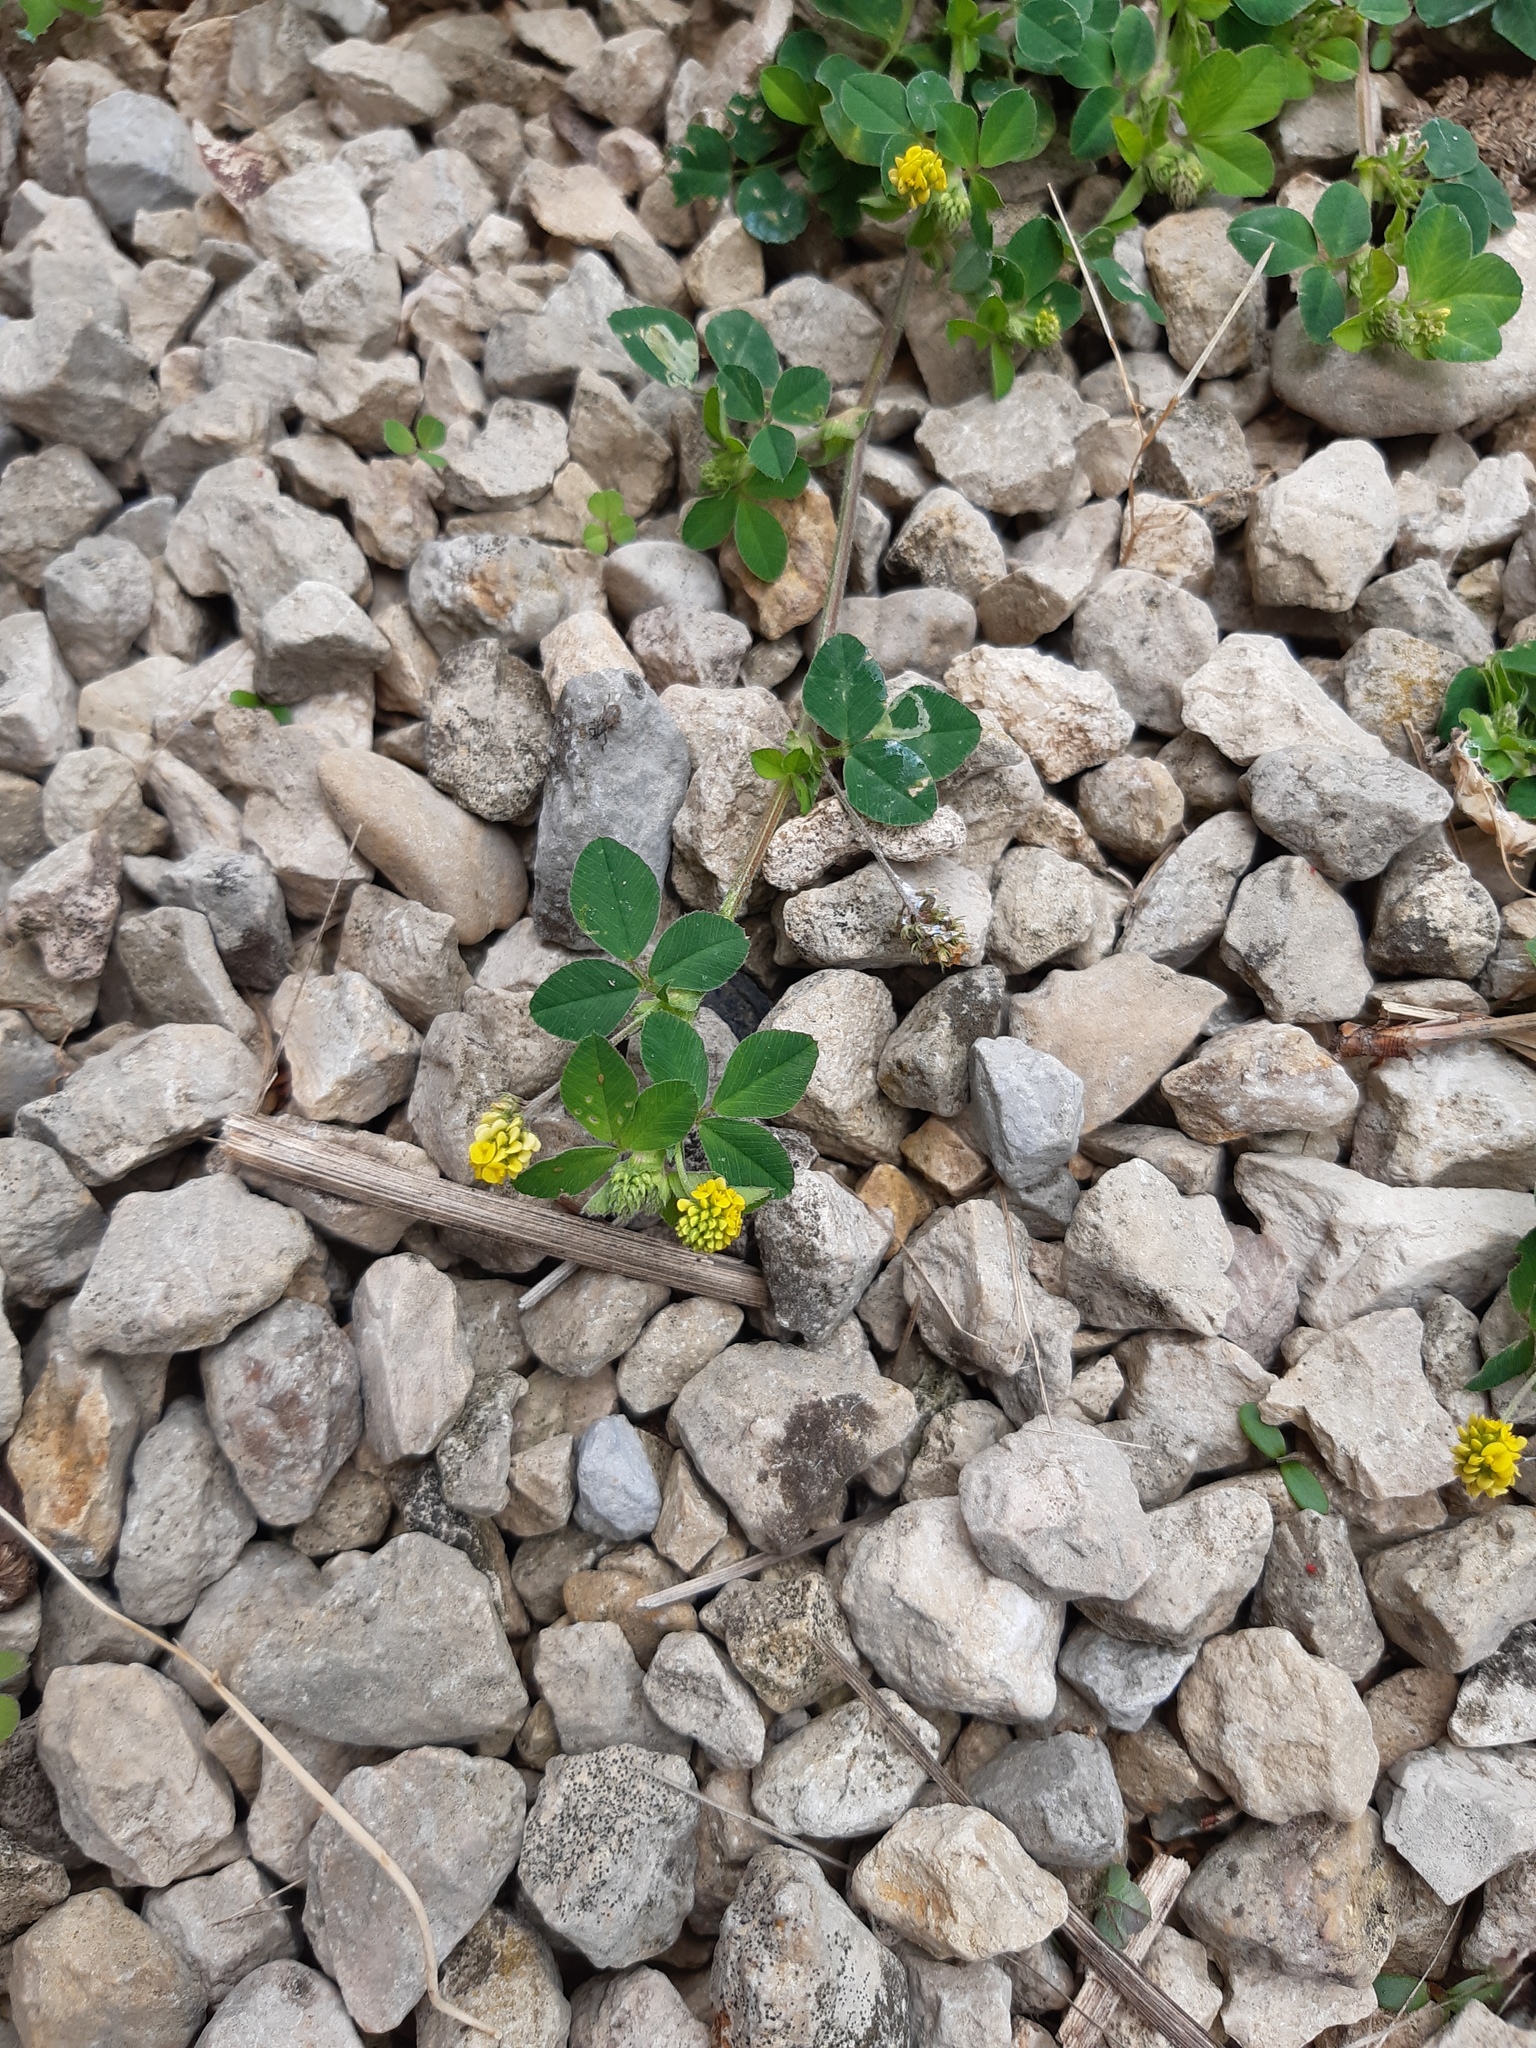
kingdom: Plantae
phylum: Tracheophyta
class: Magnoliopsida
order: Fabales
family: Fabaceae
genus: Medicago
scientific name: Medicago lupulina
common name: Black medick
